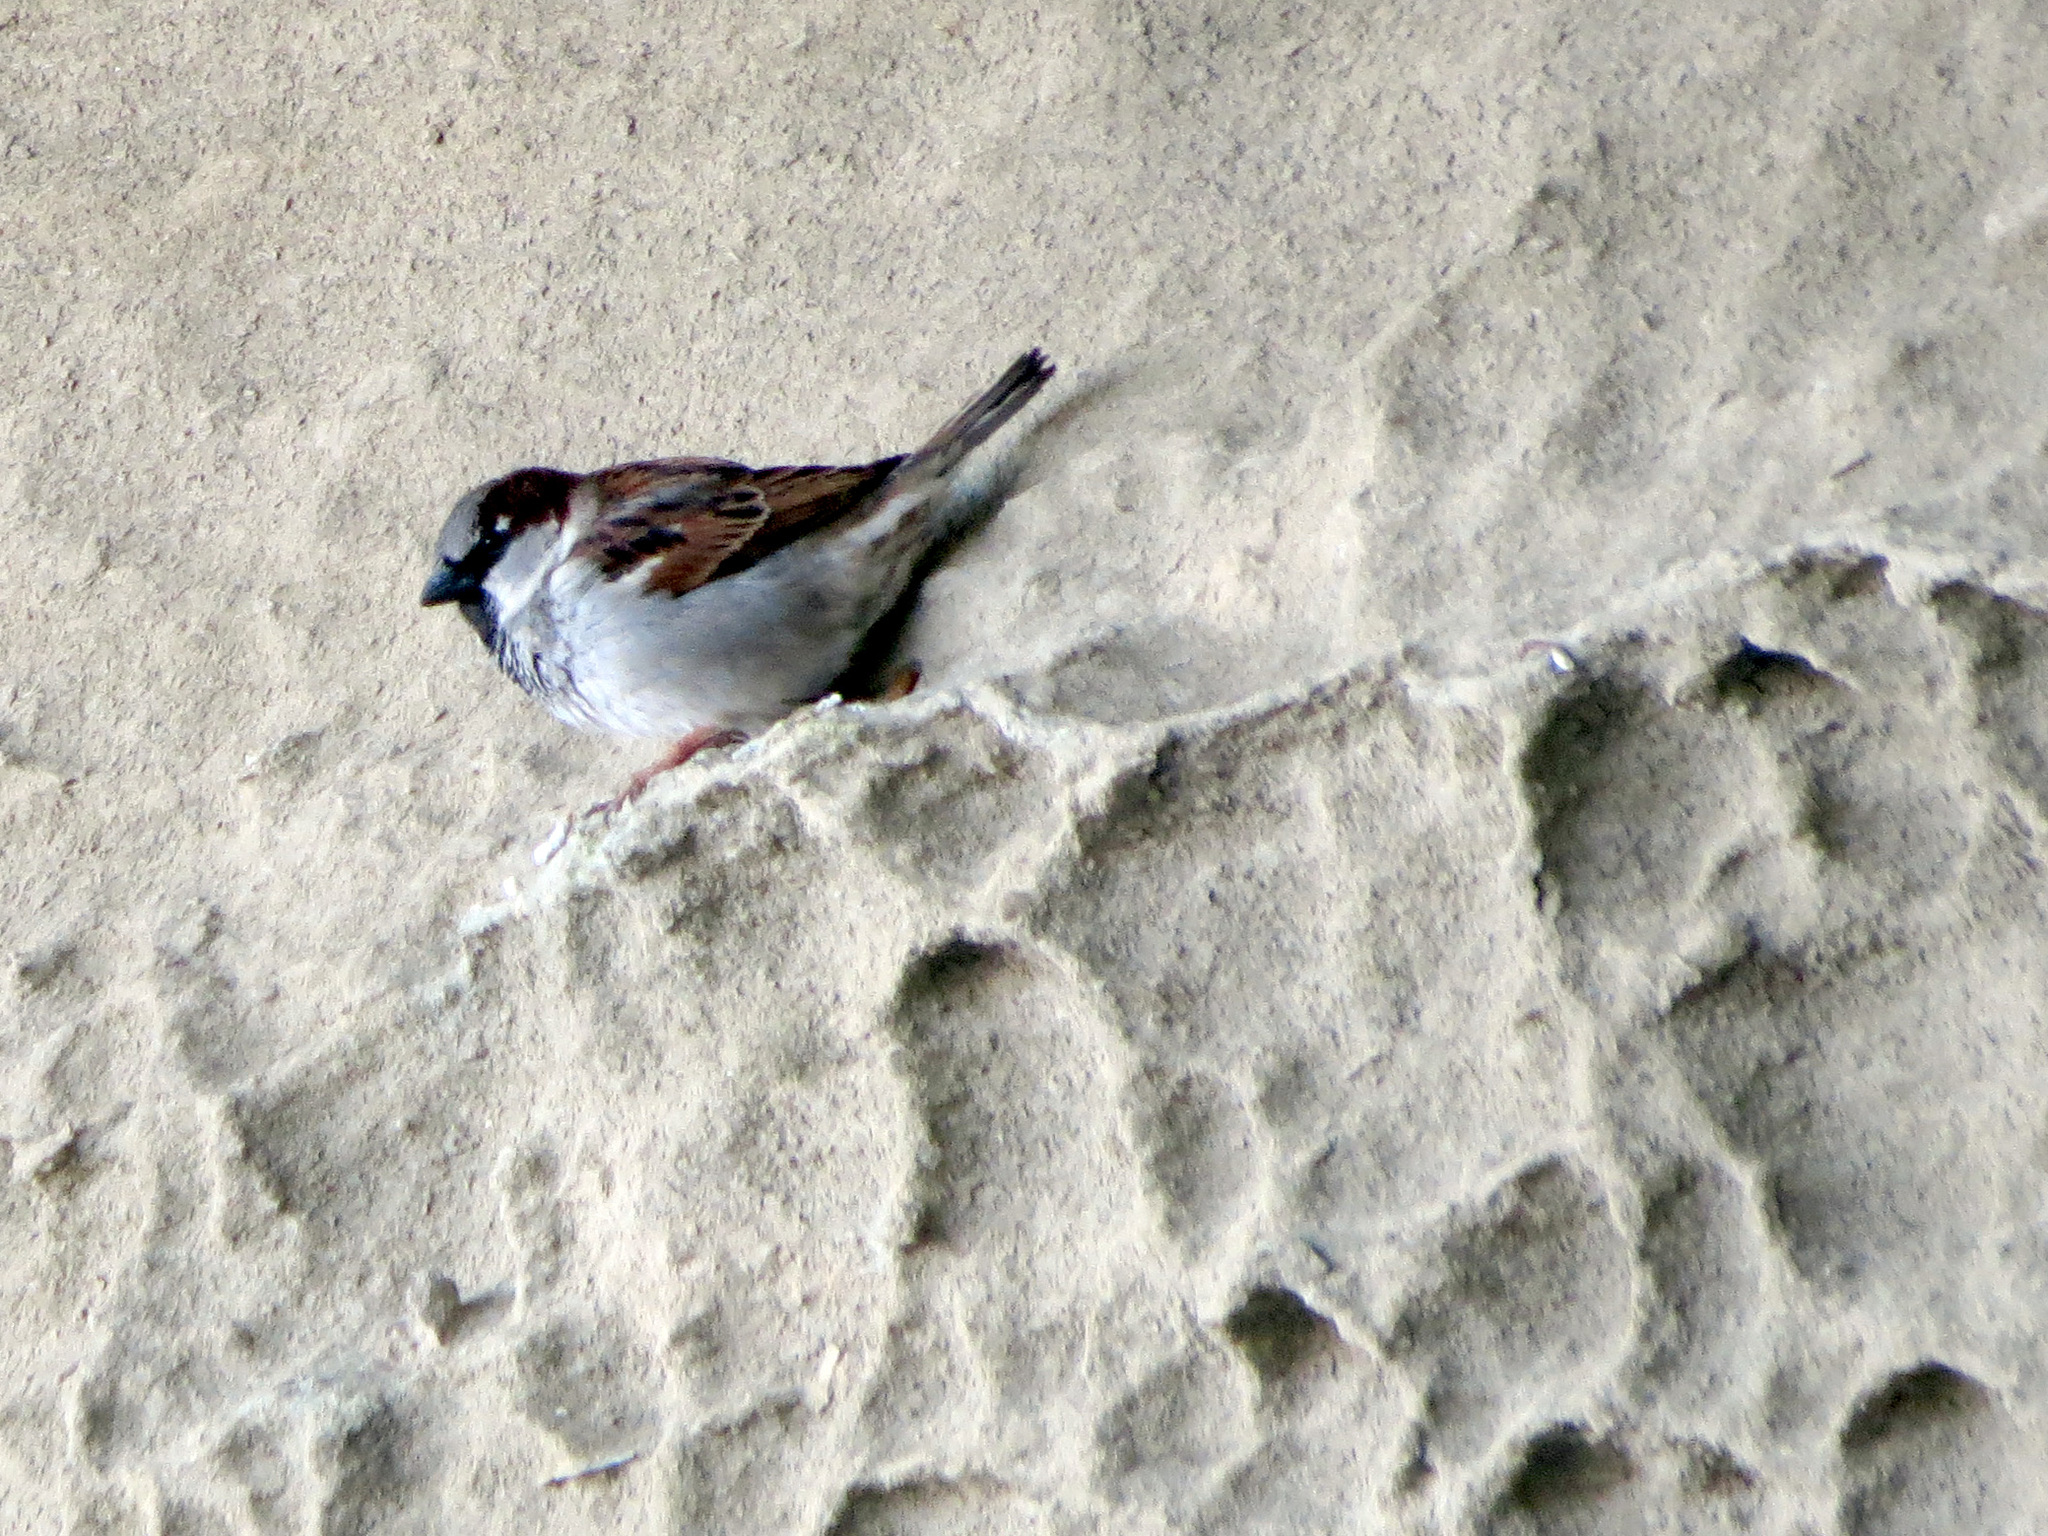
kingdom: Animalia
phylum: Chordata
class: Aves
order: Passeriformes
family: Passeridae
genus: Passer
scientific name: Passer domesticus
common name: House sparrow
